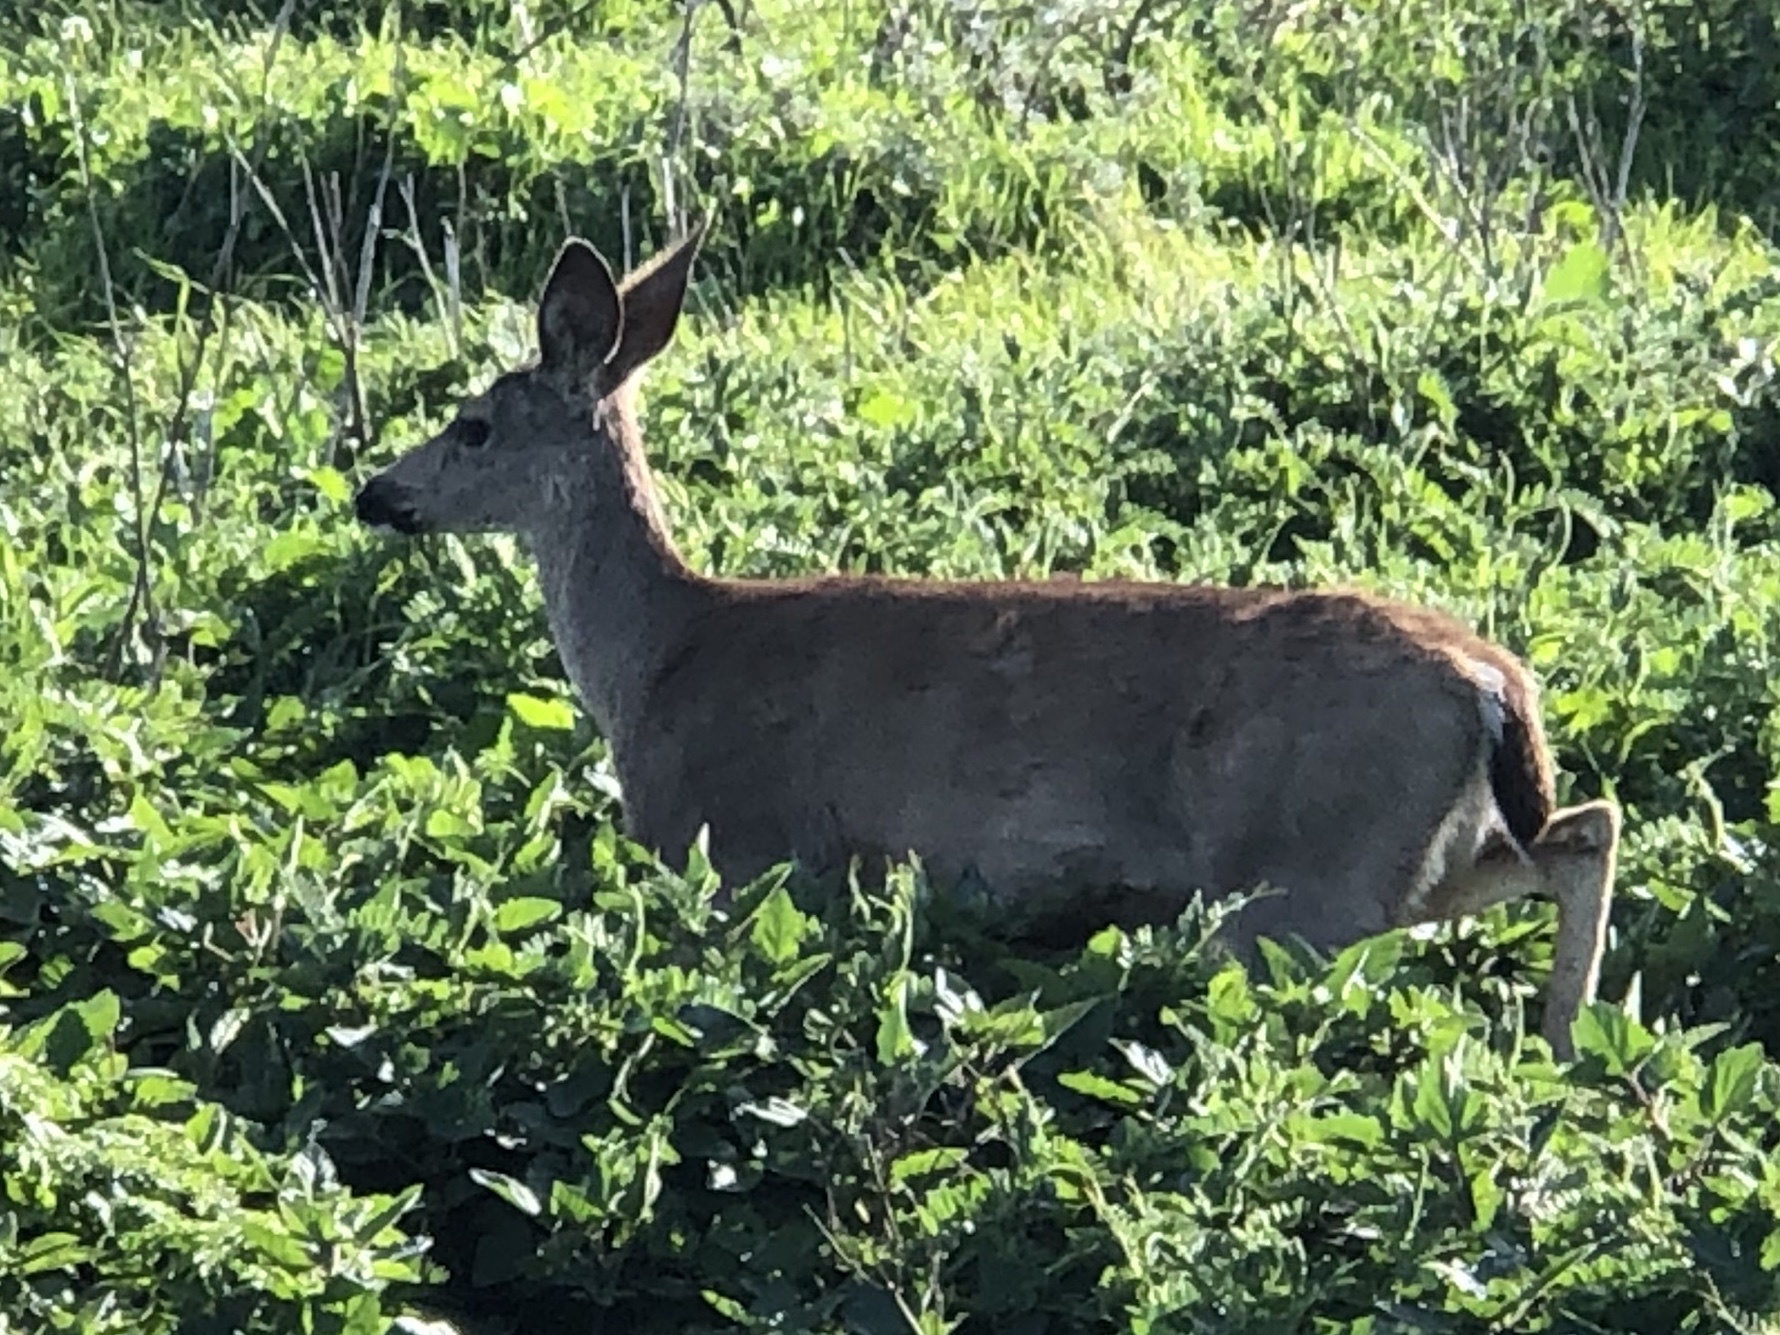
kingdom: Animalia
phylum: Chordata
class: Mammalia
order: Artiodactyla
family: Cervidae
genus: Odocoileus
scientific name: Odocoileus hemionus
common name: Mule deer
